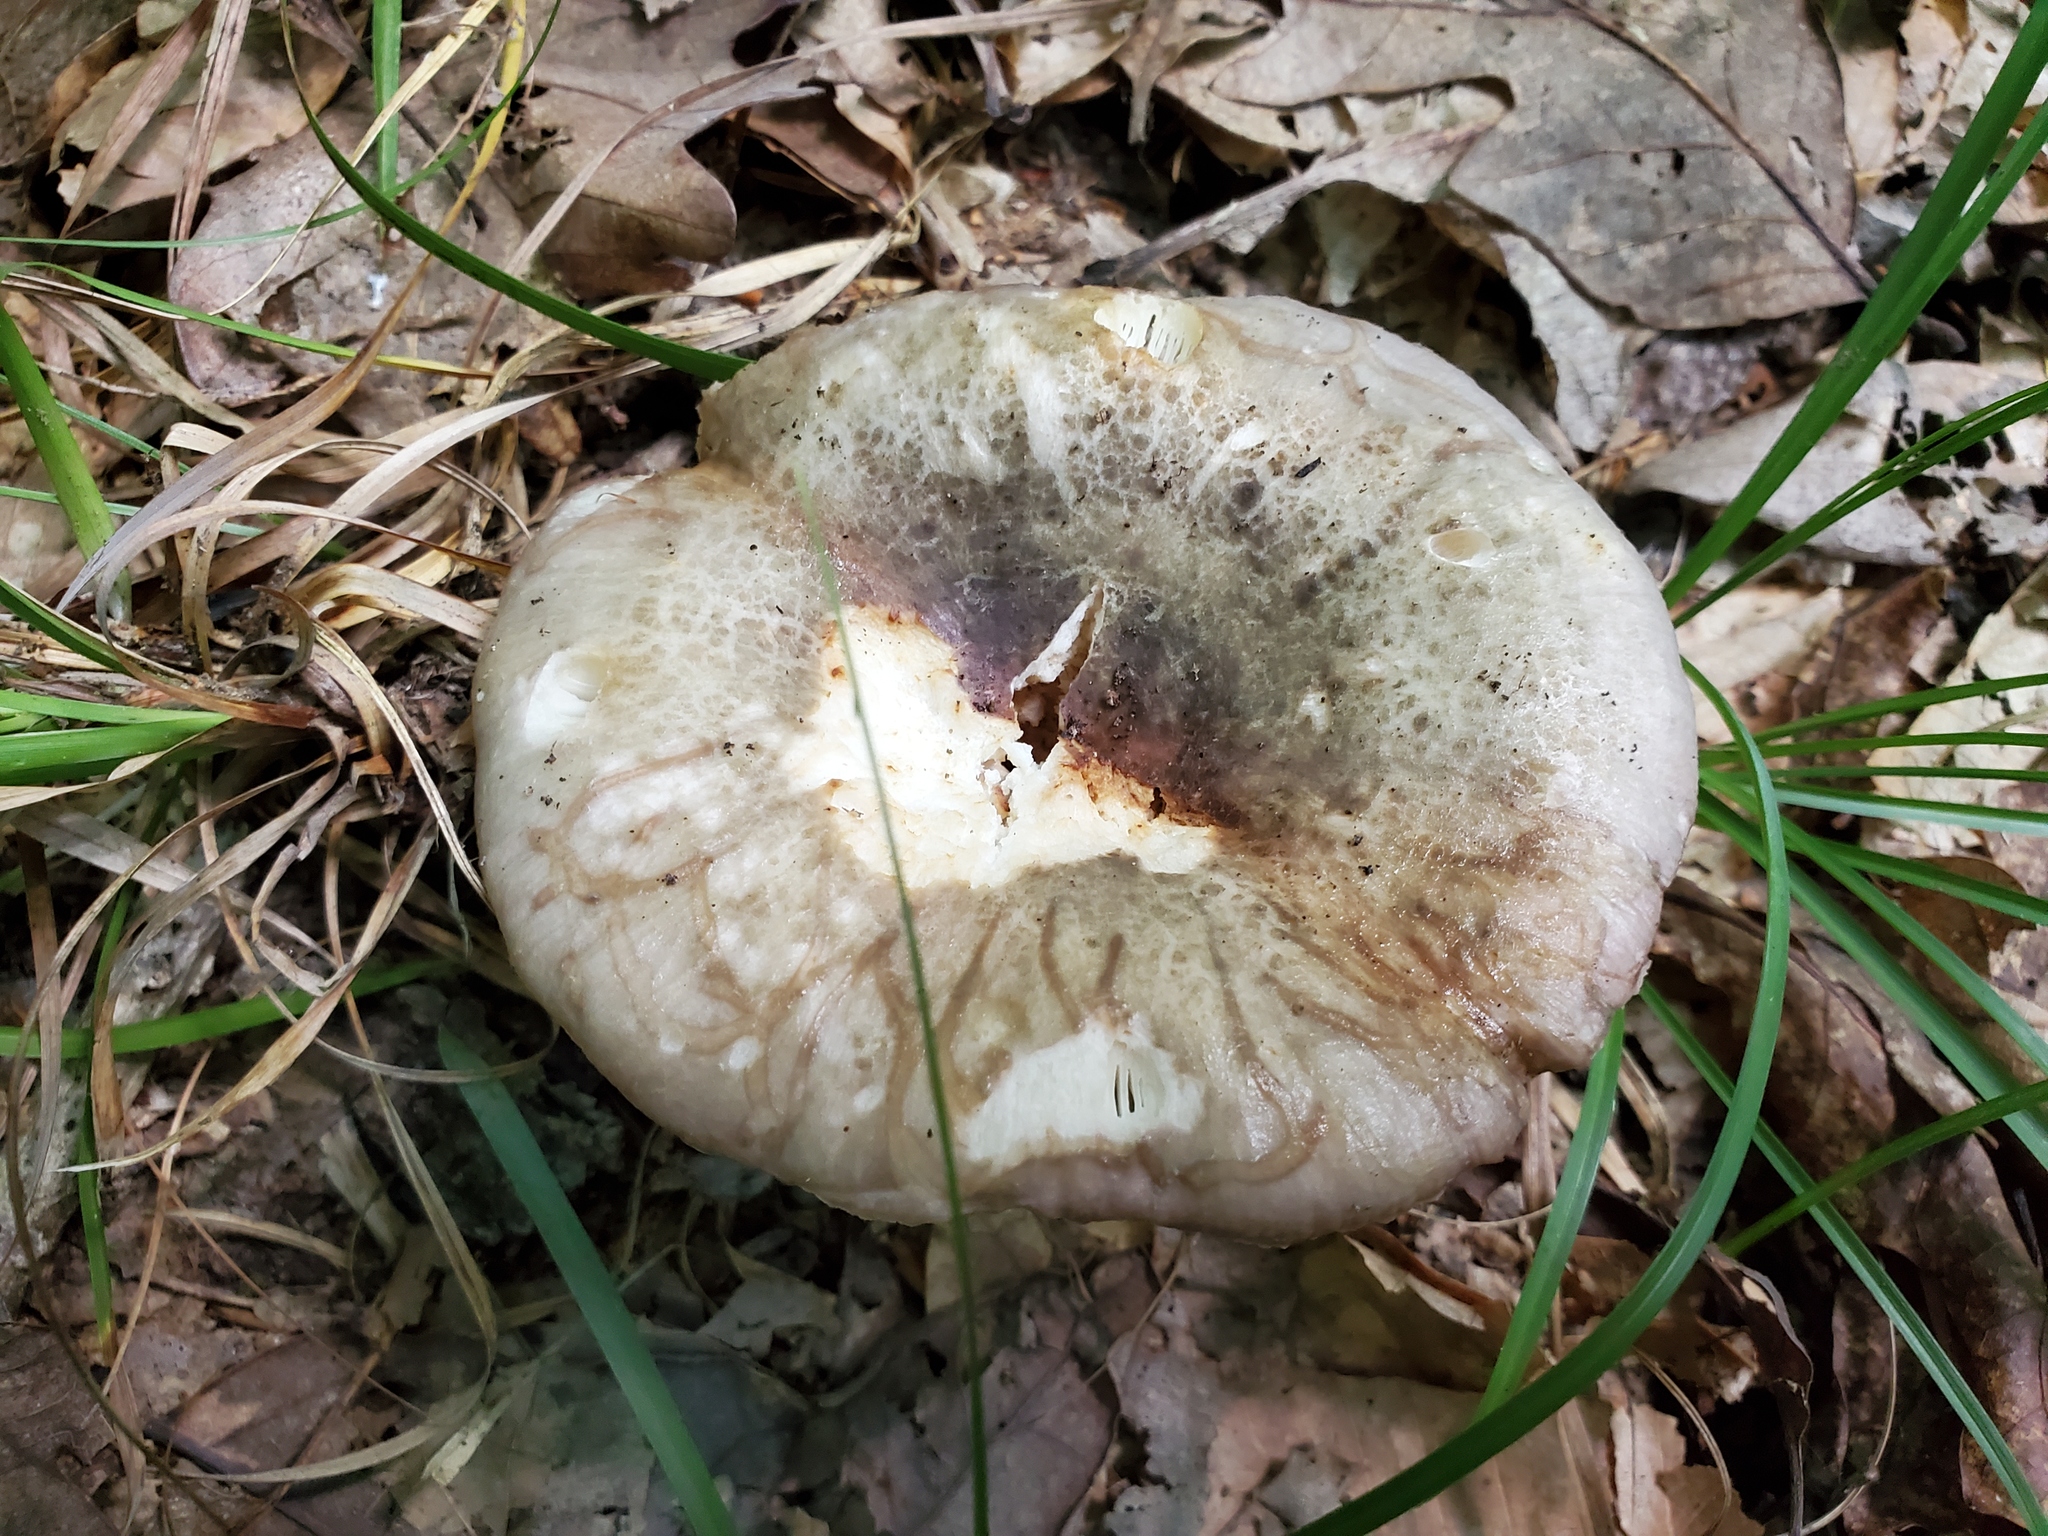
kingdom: Fungi
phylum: Basidiomycota
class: Agaricomycetes
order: Russulales
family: Russulaceae
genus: Russula
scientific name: Russula cyanoxantha
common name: Charcoal burner
